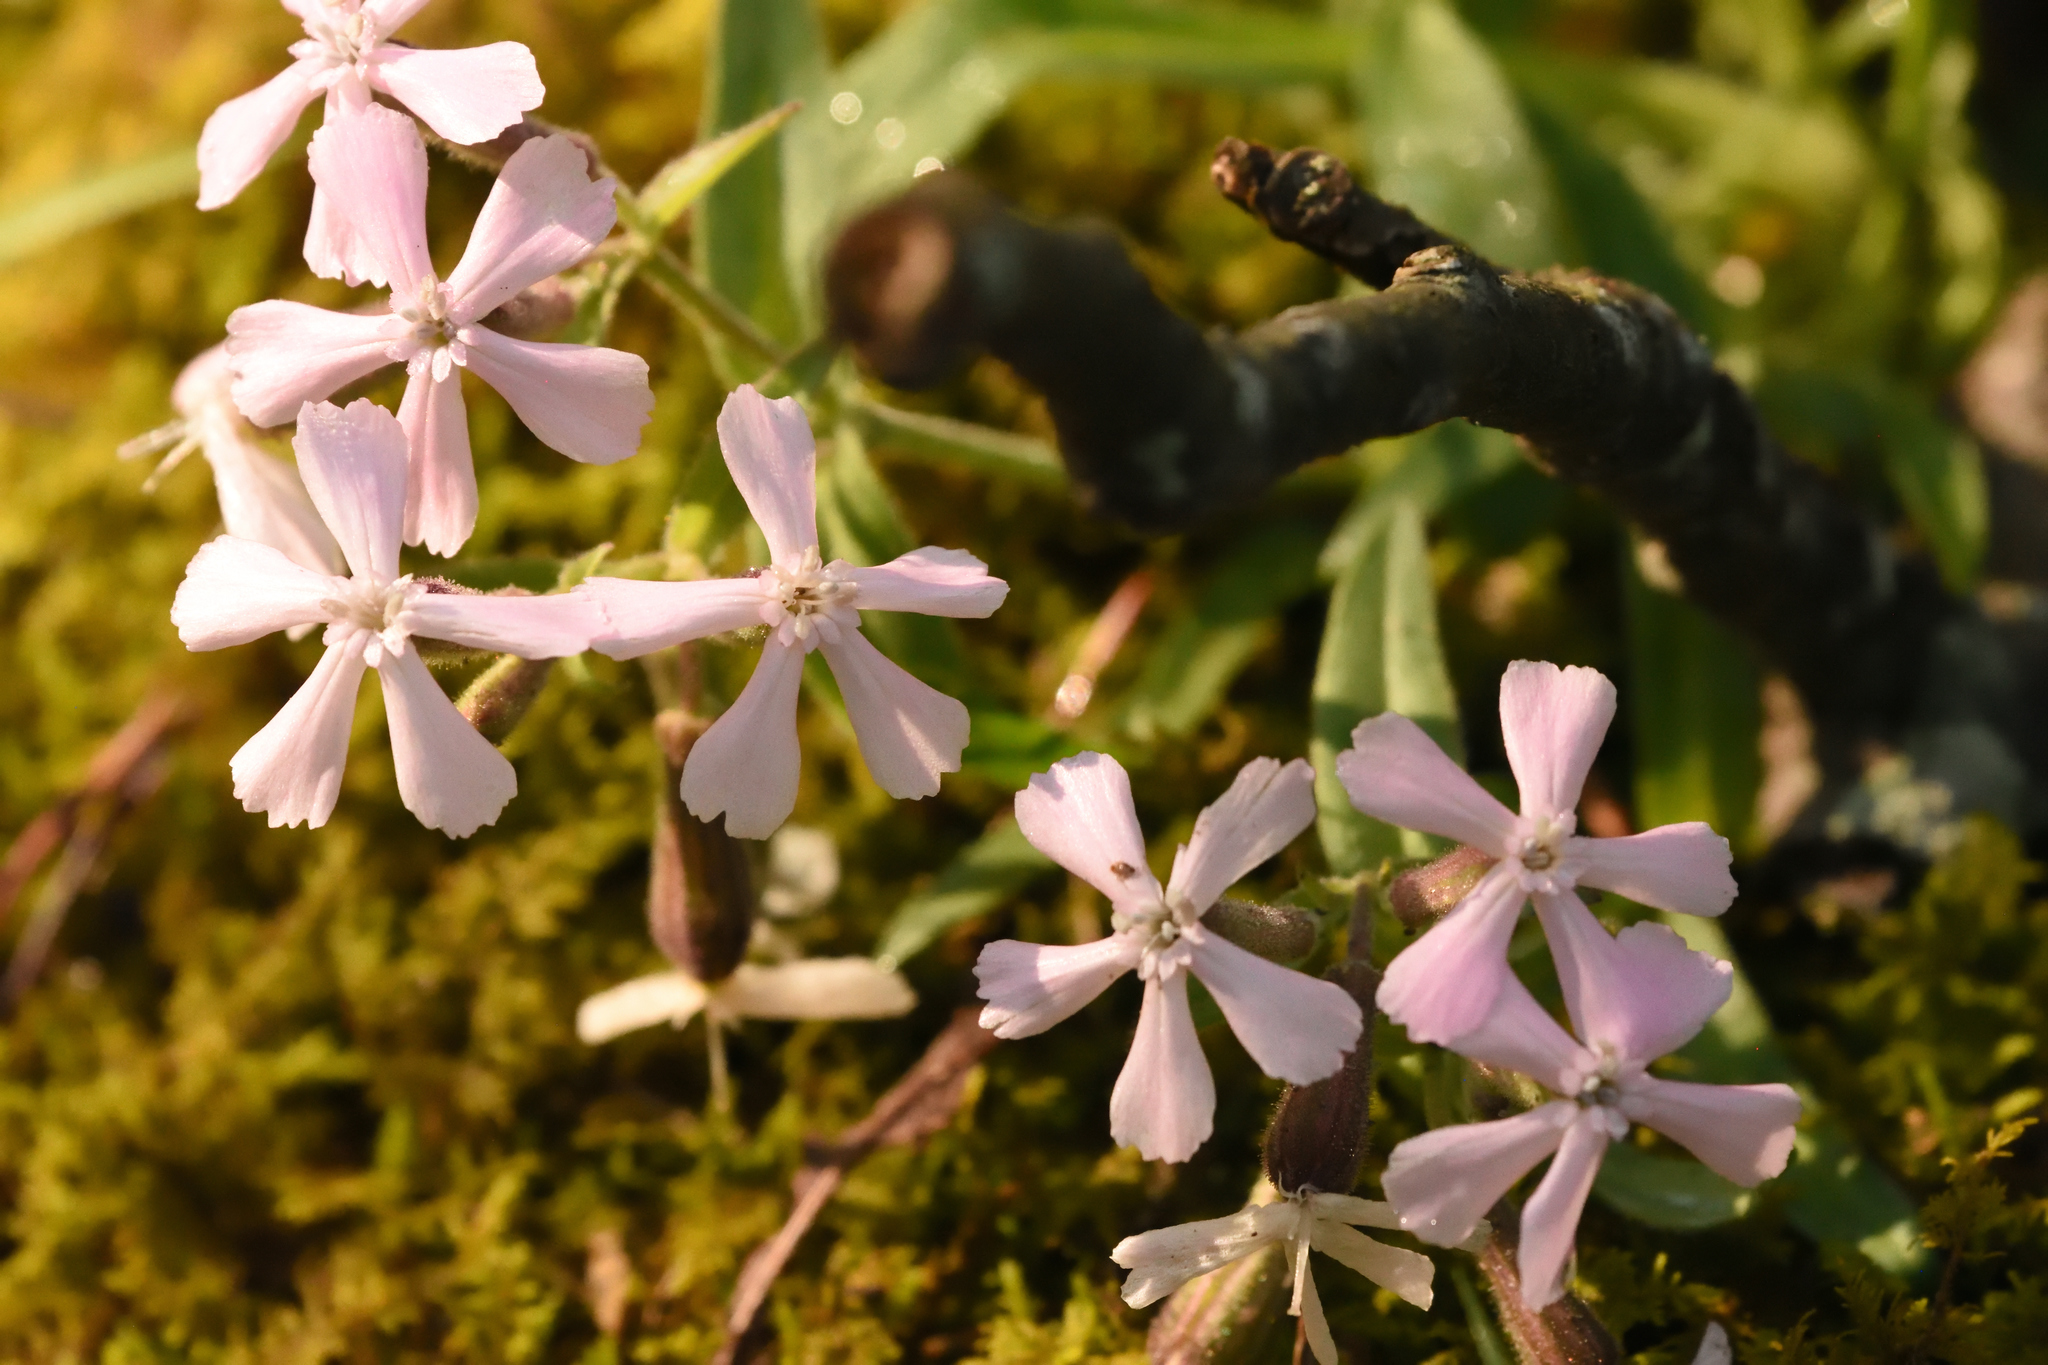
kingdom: Plantae
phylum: Tracheophyta
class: Magnoliopsida
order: Caryophyllales
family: Caryophyllaceae
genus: Silene
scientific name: Silene caroliniana
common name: Sticky catchfly
